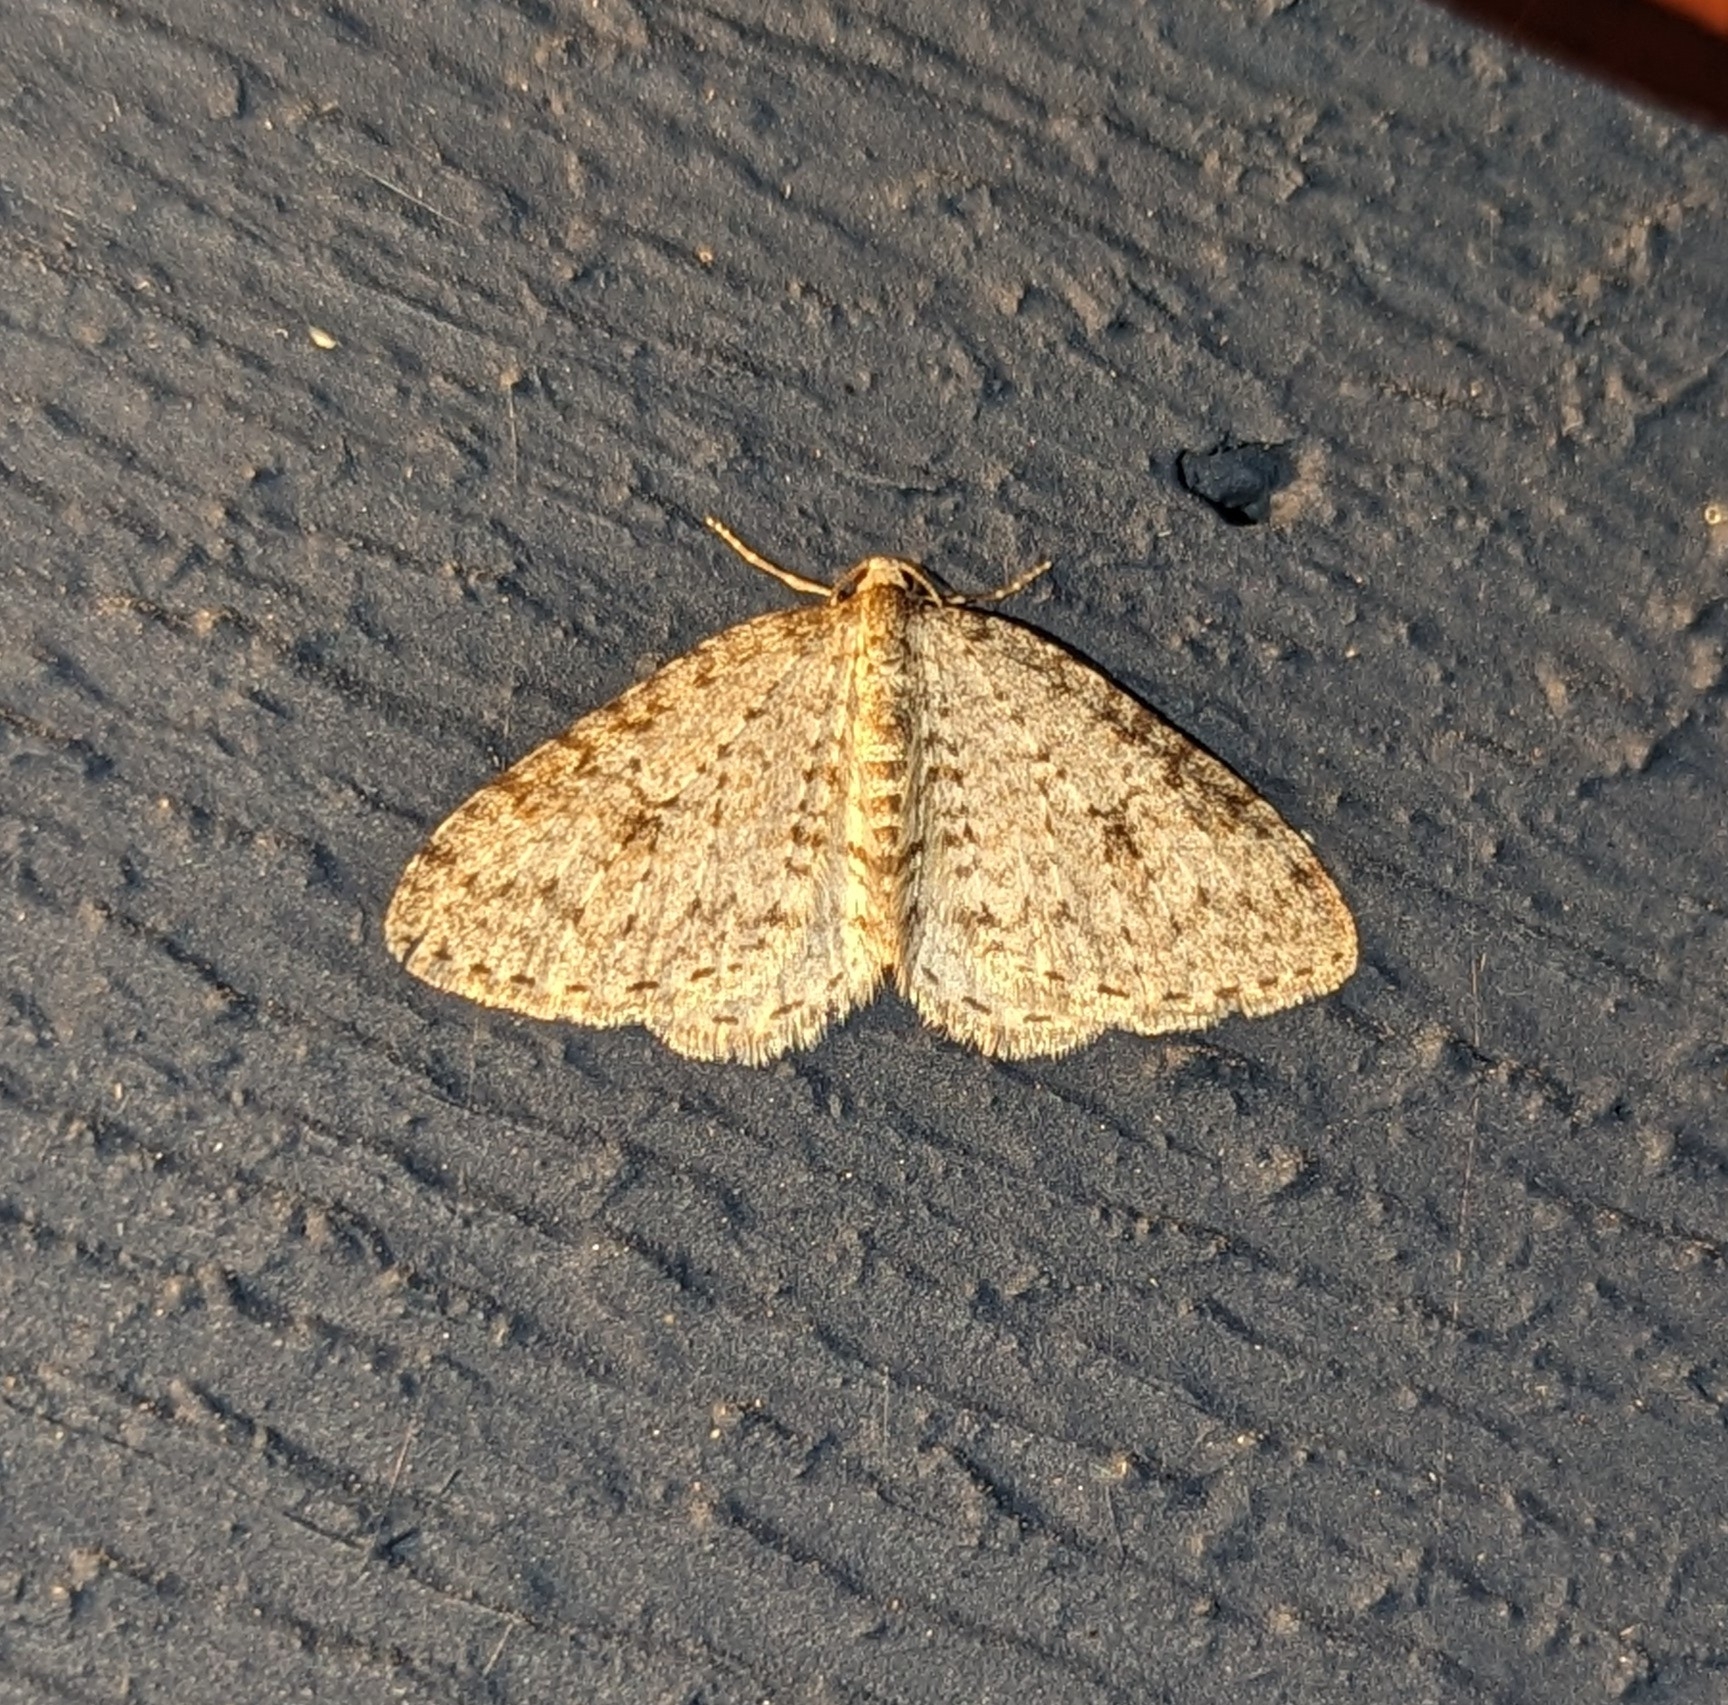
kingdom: Animalia
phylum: Arthropoda
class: Insecta
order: Lepidoptera
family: Geometridae
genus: Venusia
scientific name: Venusia pearsalli
